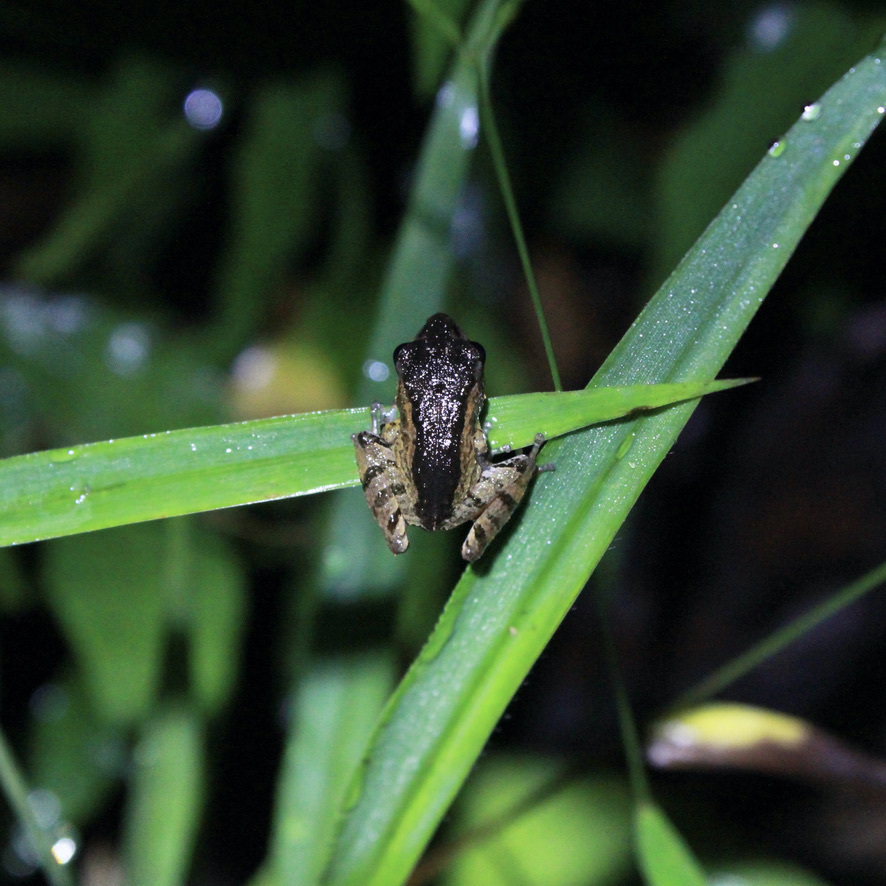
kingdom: Animalia
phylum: Chordata
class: Amphibia
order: Anura
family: Craugastoridae
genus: Pristimantis
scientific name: Pristimantis urichi
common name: Lesser antilles robber frog
